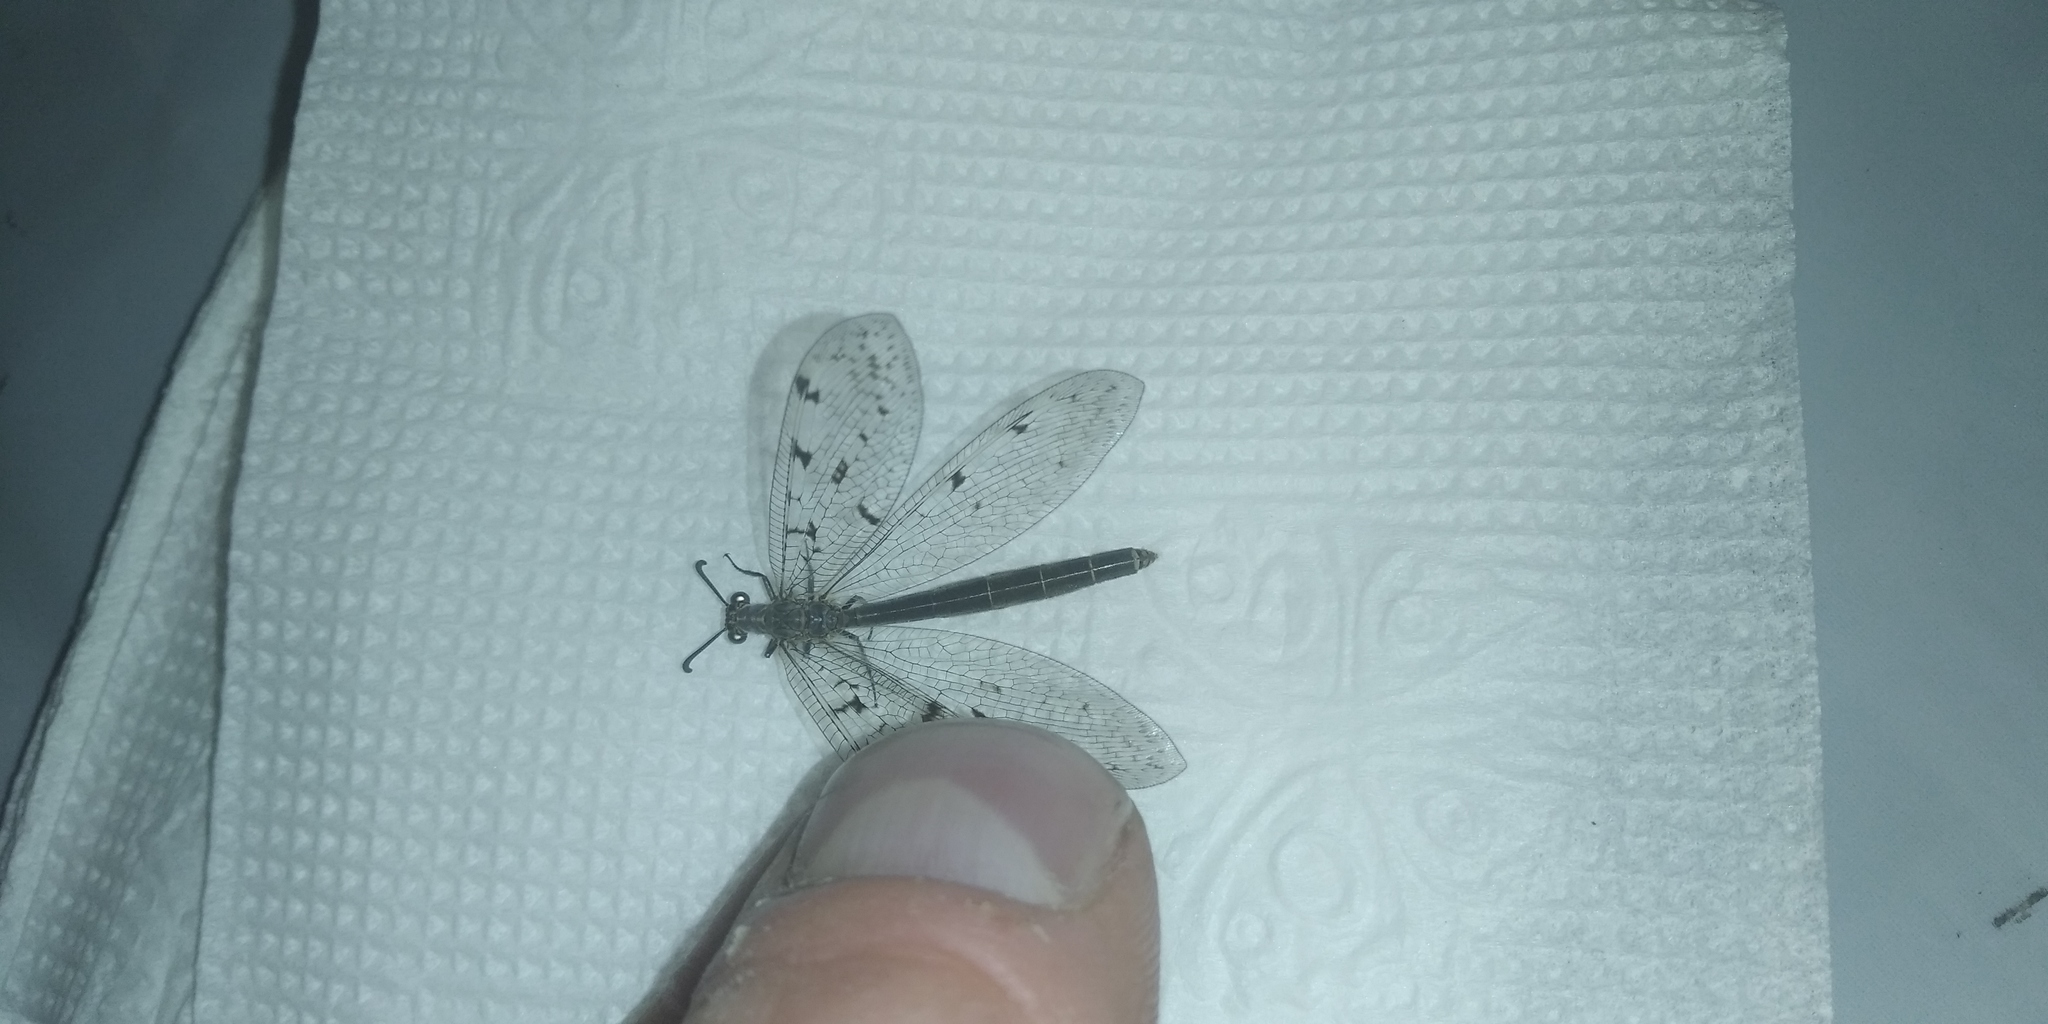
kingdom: Animalia
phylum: Arthropoda
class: Insecta
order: Neuroptera
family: Myrmeleontidae
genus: Euroleon
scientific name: Euroleon nostras
